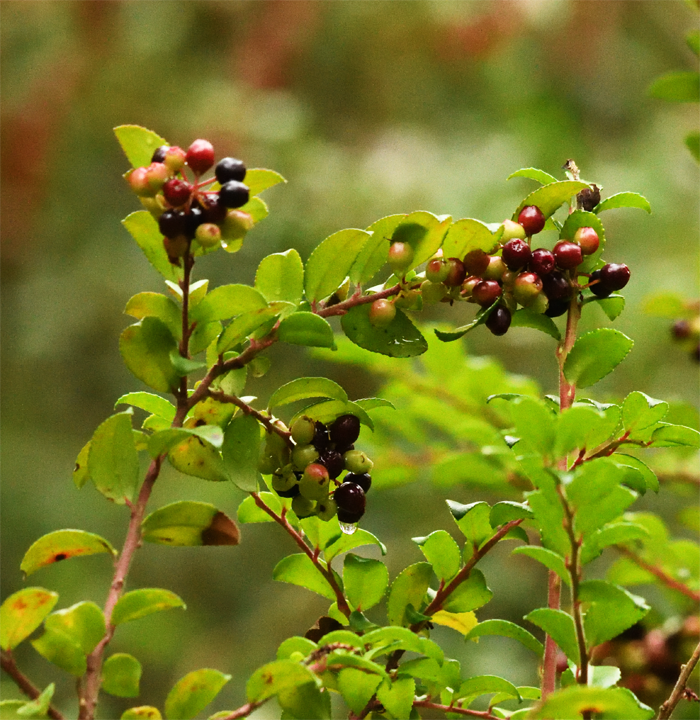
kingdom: Plantae
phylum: Tracheophyta
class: Magnoliopsida
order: Ericales
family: Ericaceae
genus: Vaccinium
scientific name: Vaccinium ovatum
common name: California-huckleberry
